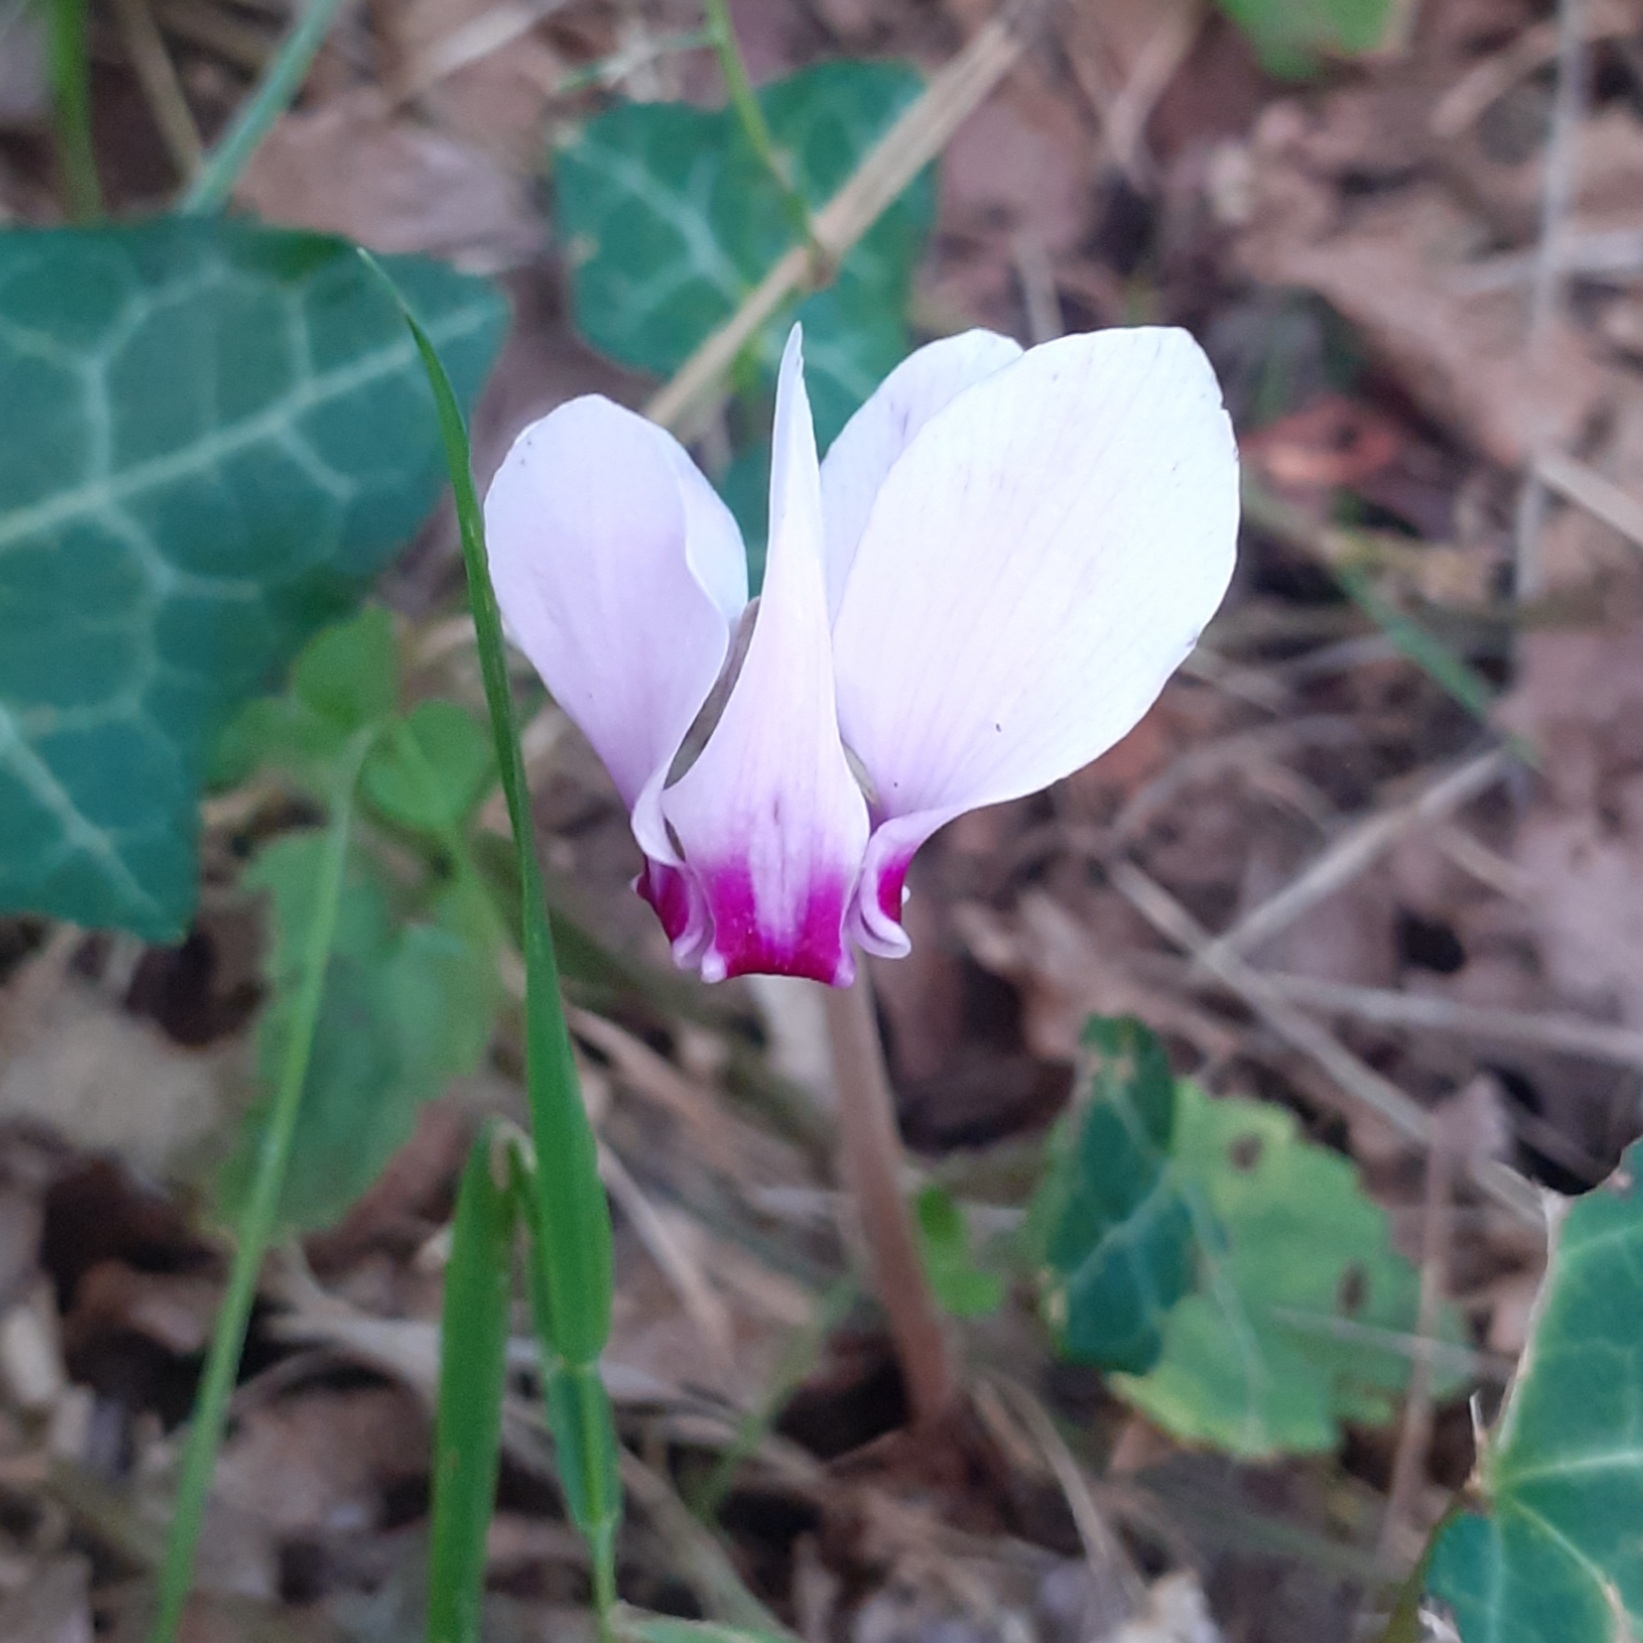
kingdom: Plantae
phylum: Tracheophyta
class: Magnoliopsida
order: Ericales
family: Primulaceae
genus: Cyclamen
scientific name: Cyclamen hederifolium
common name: Sowbread
